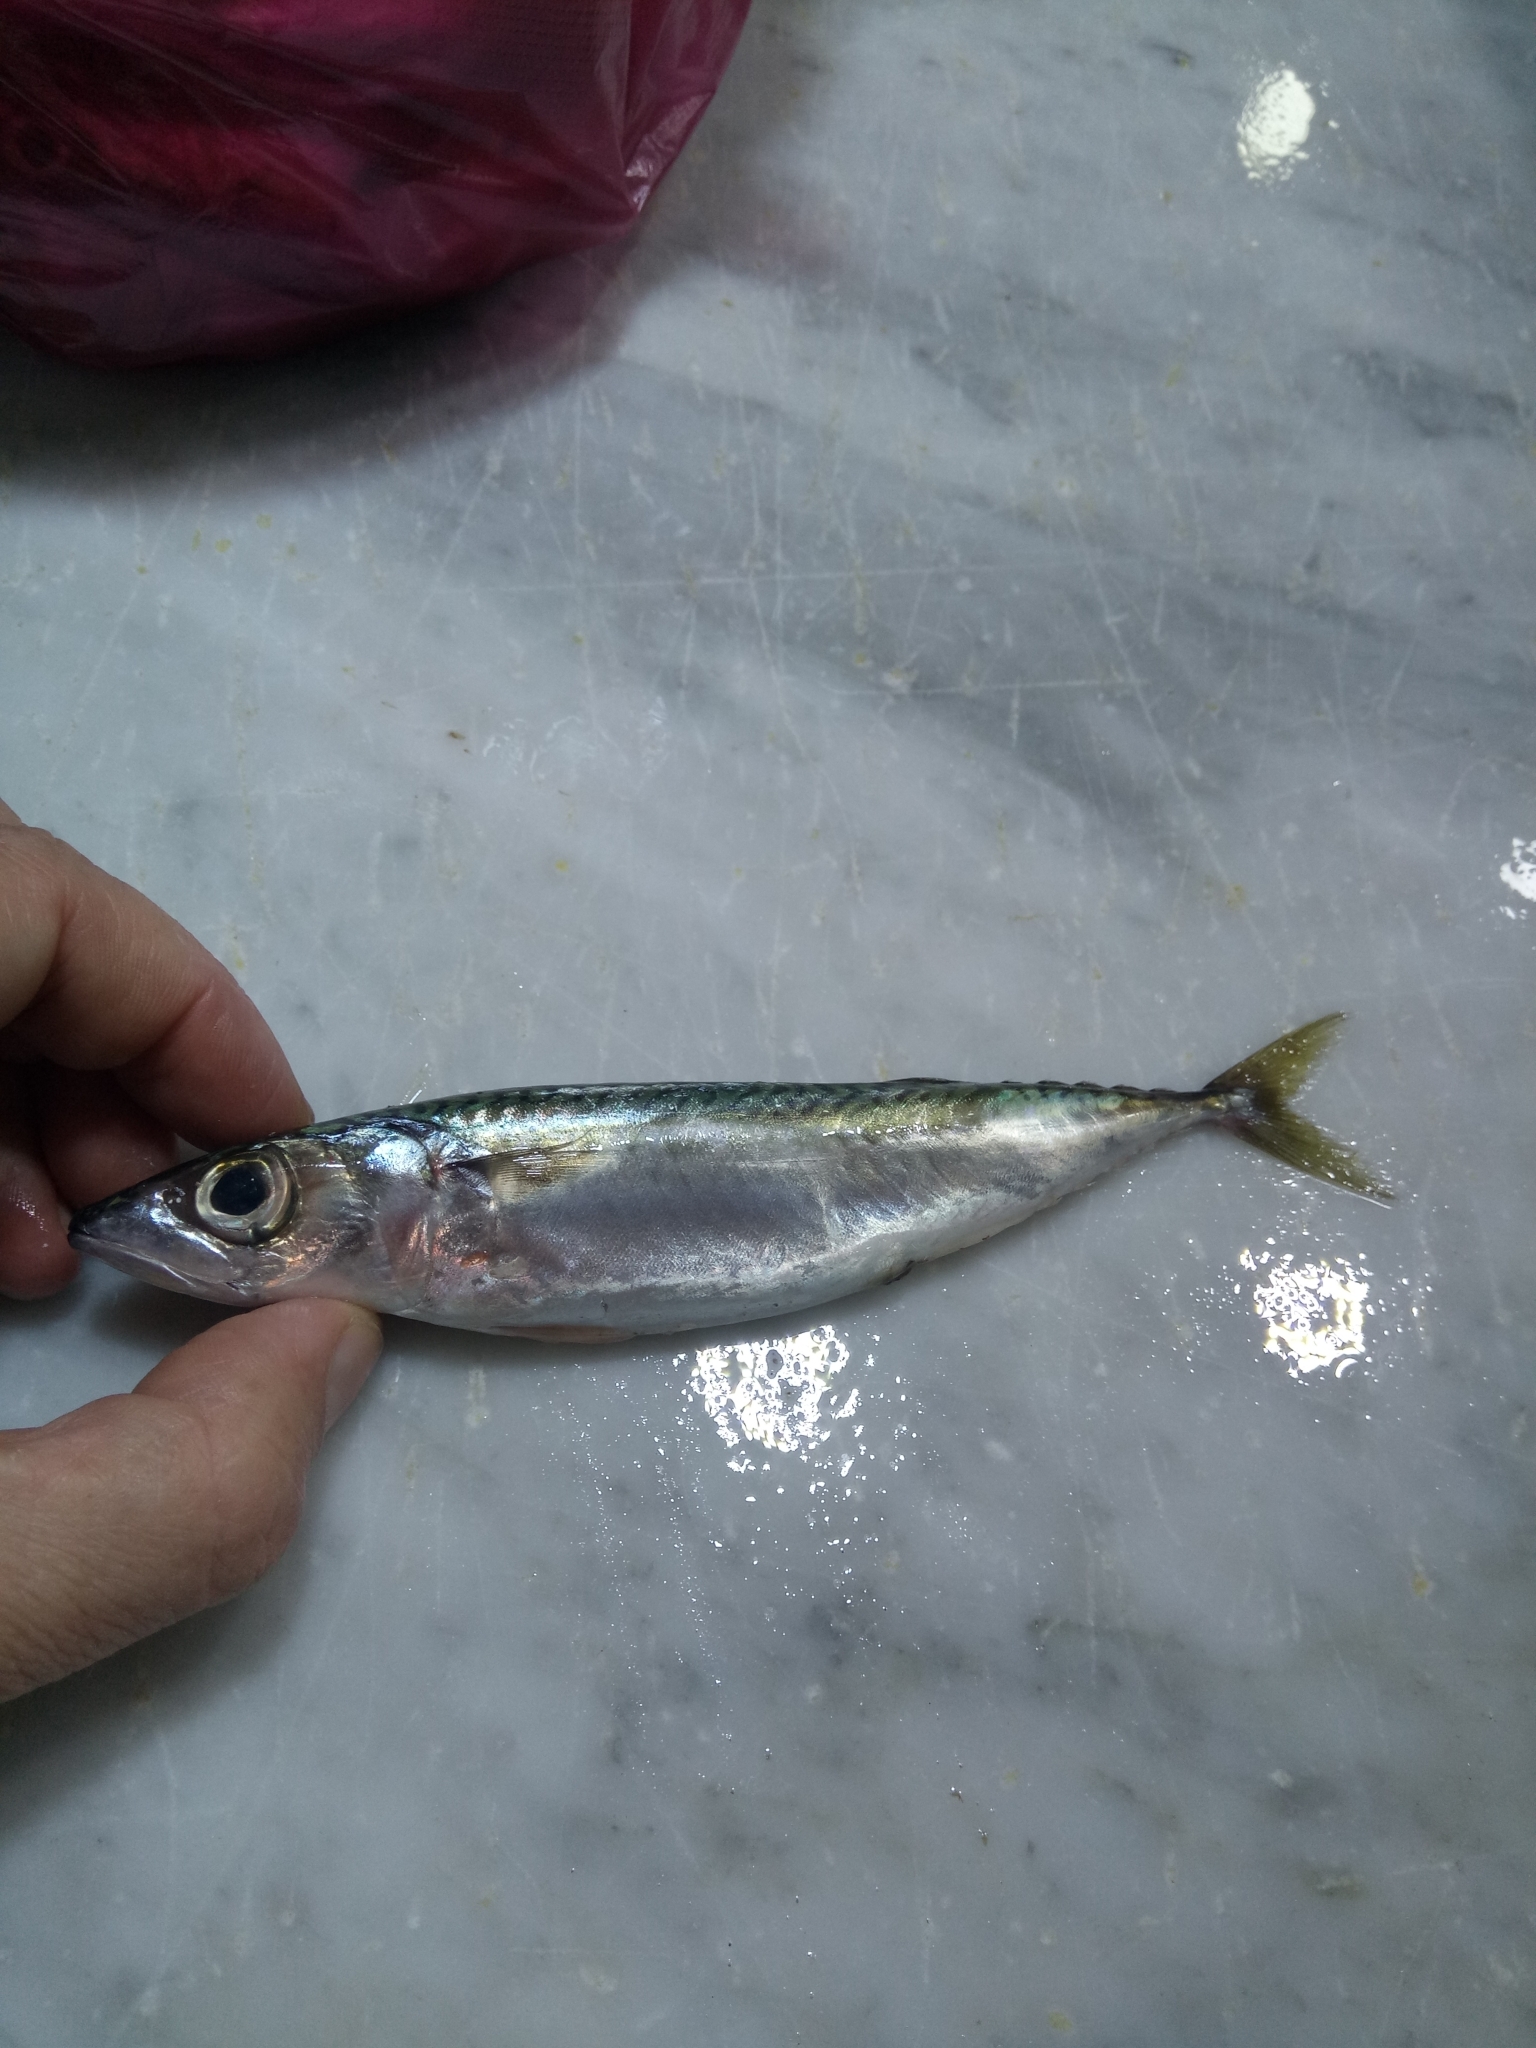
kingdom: Animalia
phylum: Chordata
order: Perciformes
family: Scombridae
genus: Scomber
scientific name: Scomber scombrus
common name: Mackerel
